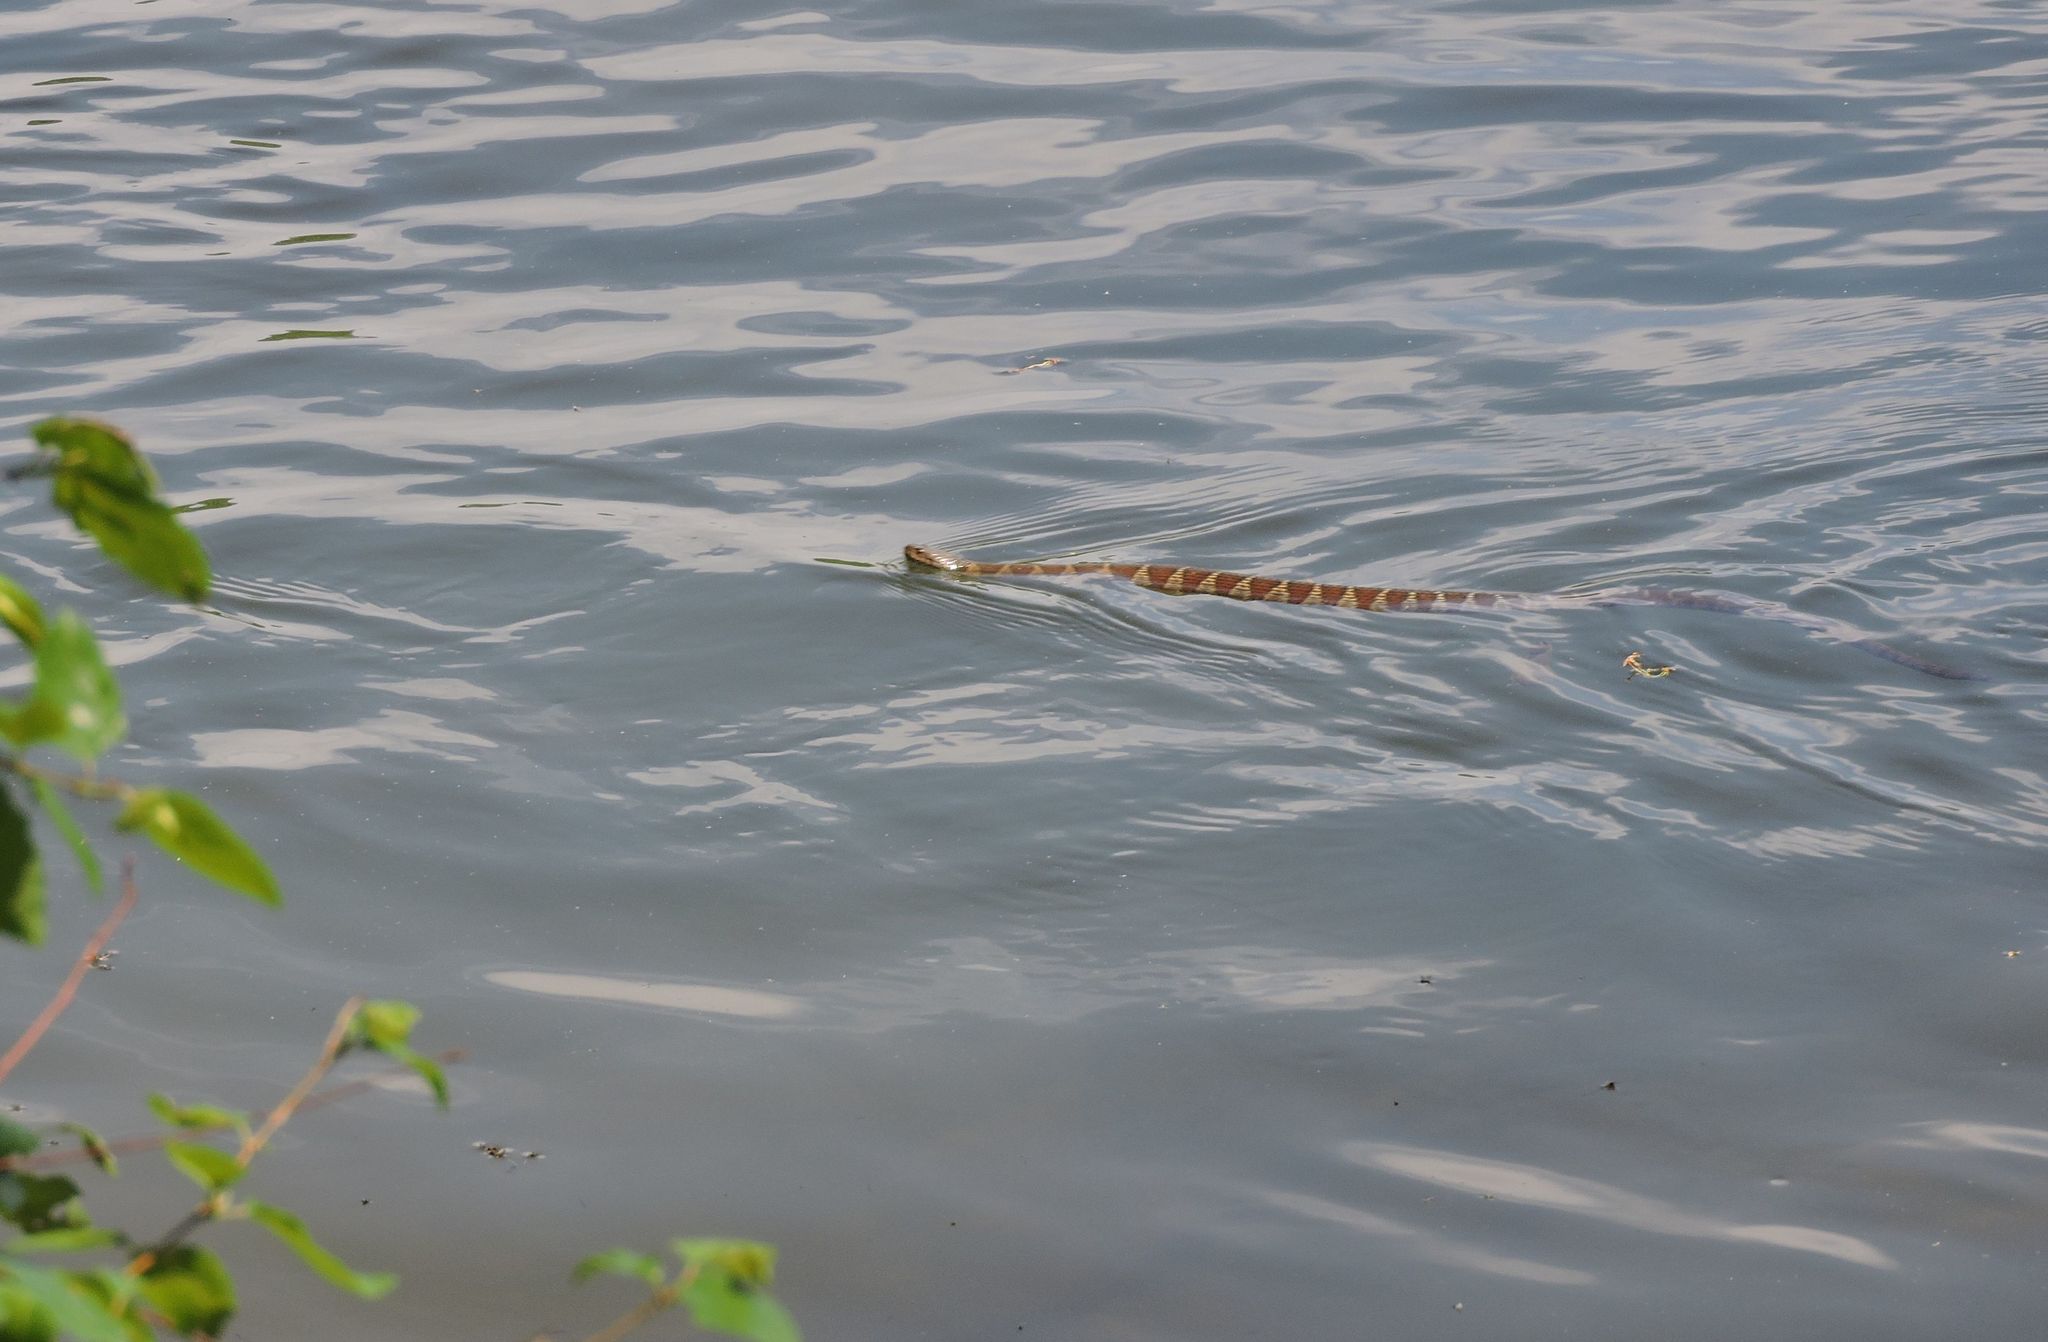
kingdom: Animalia
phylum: Chordata
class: Squamata
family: Colubridae
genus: Nerodia
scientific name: Nerodia sipedon
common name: Northern water snake
